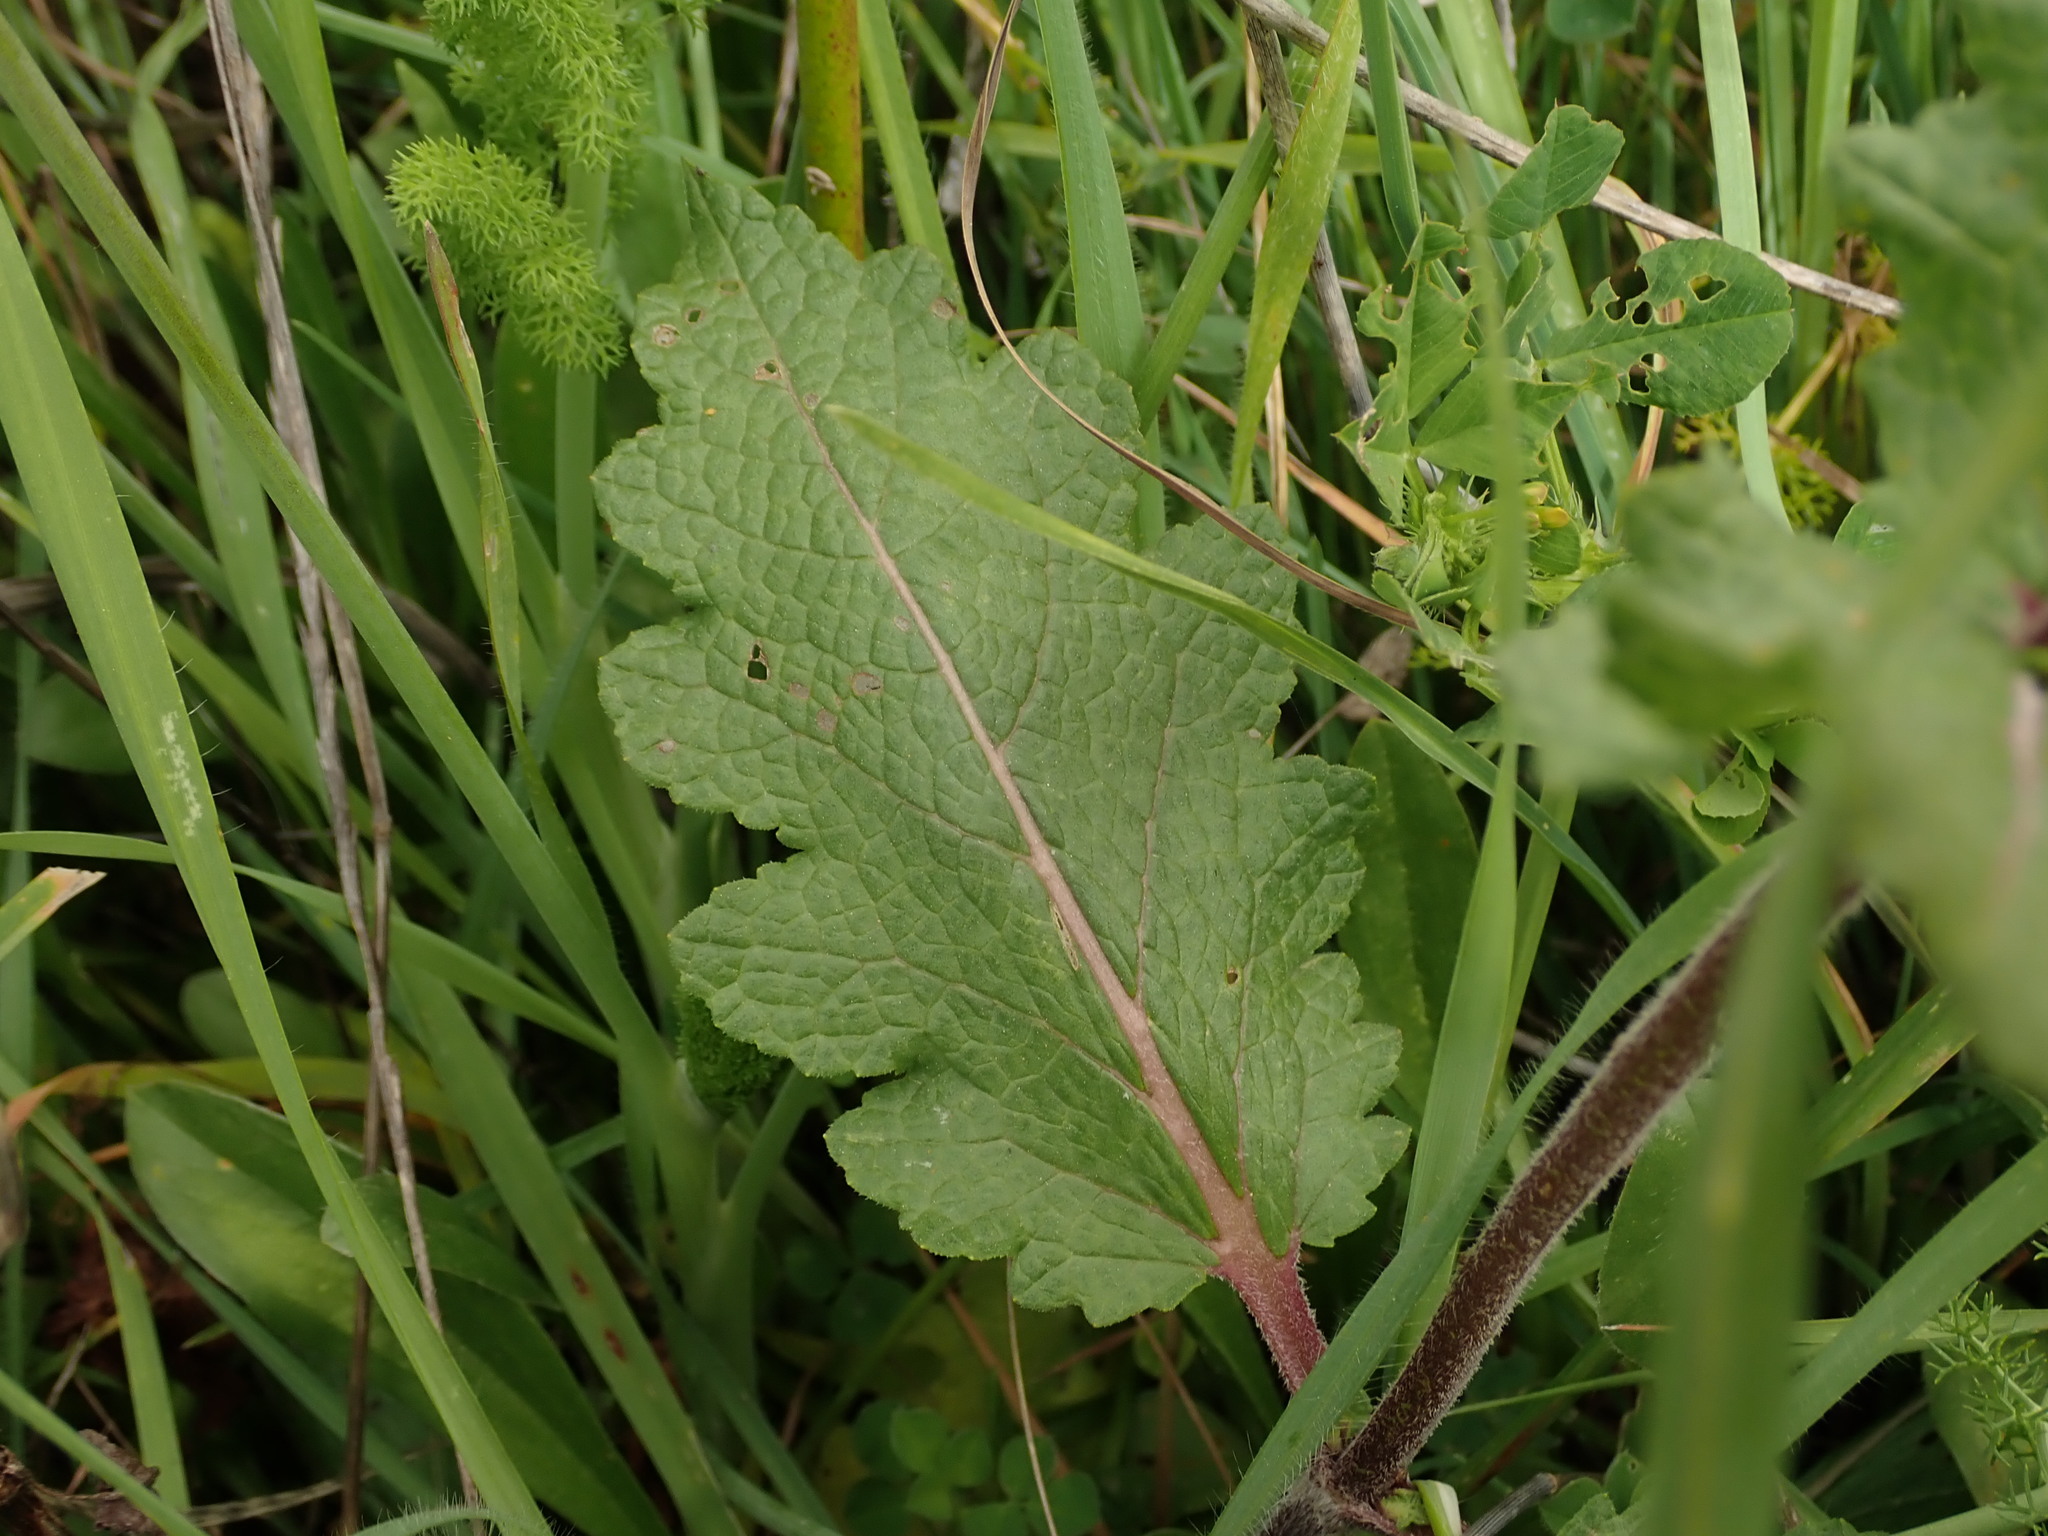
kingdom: Plantae
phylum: Tracheophyta
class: Magnoliopsida
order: Lamiales
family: Lamiaceae
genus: Salvia
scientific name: Salvia verbenaca
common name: Wild clary
